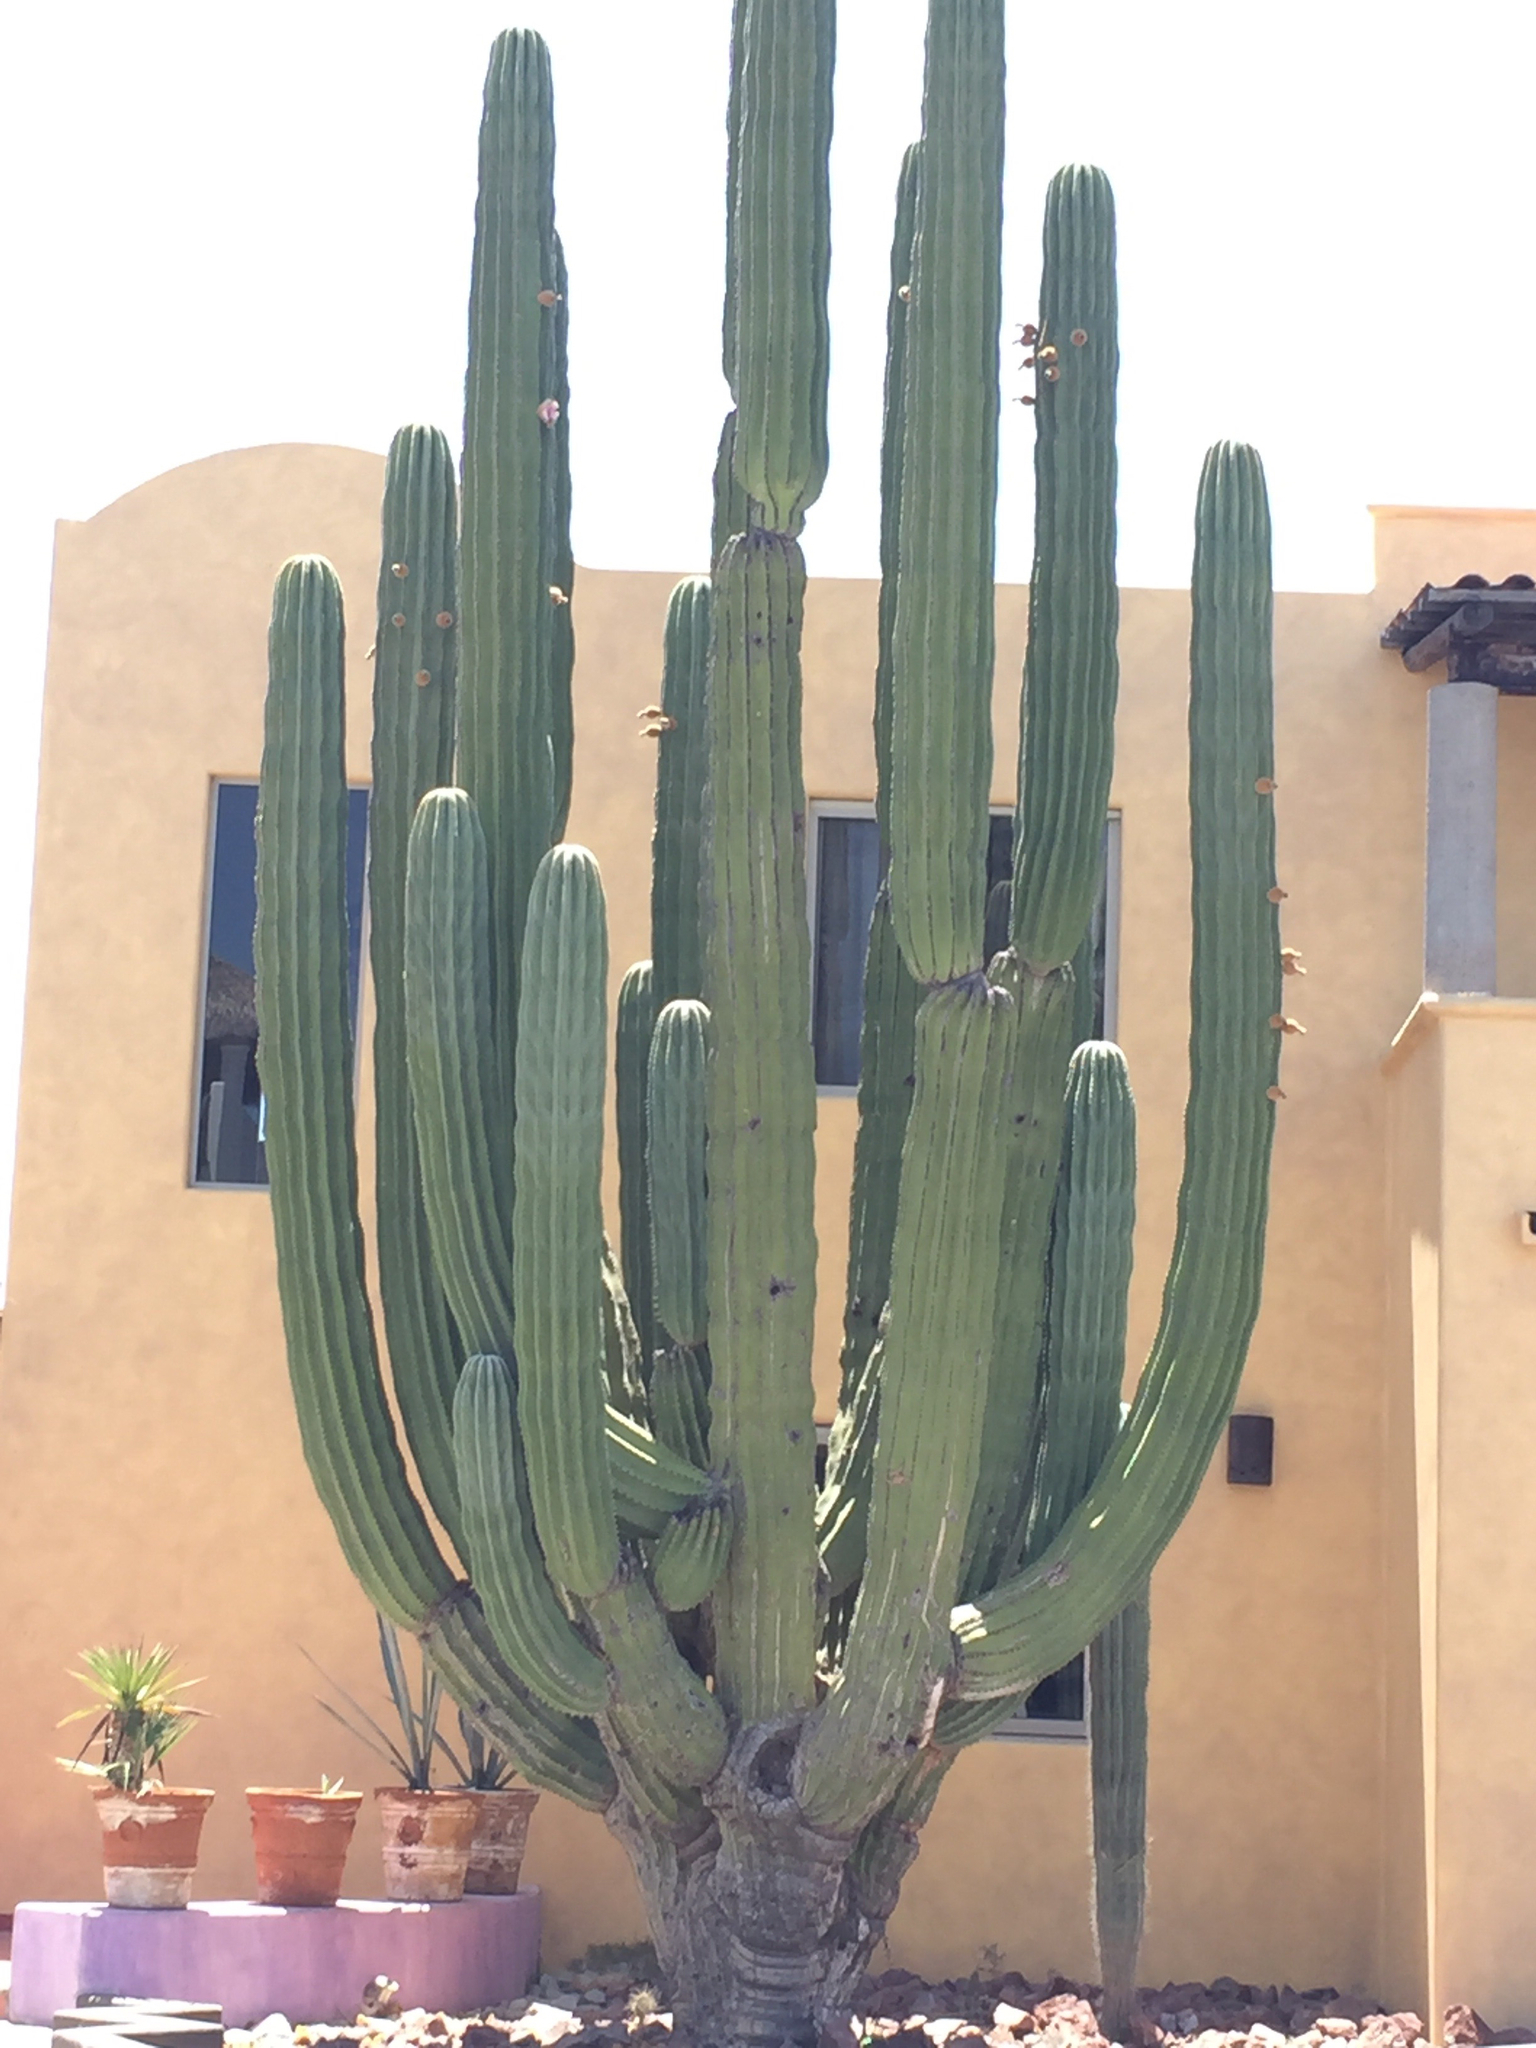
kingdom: Plantae
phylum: Tracheophyta
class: Magnoliopsida
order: Caryophyllales
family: Cactaceae
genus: Pachycereus
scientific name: Pachycereus pringlei
